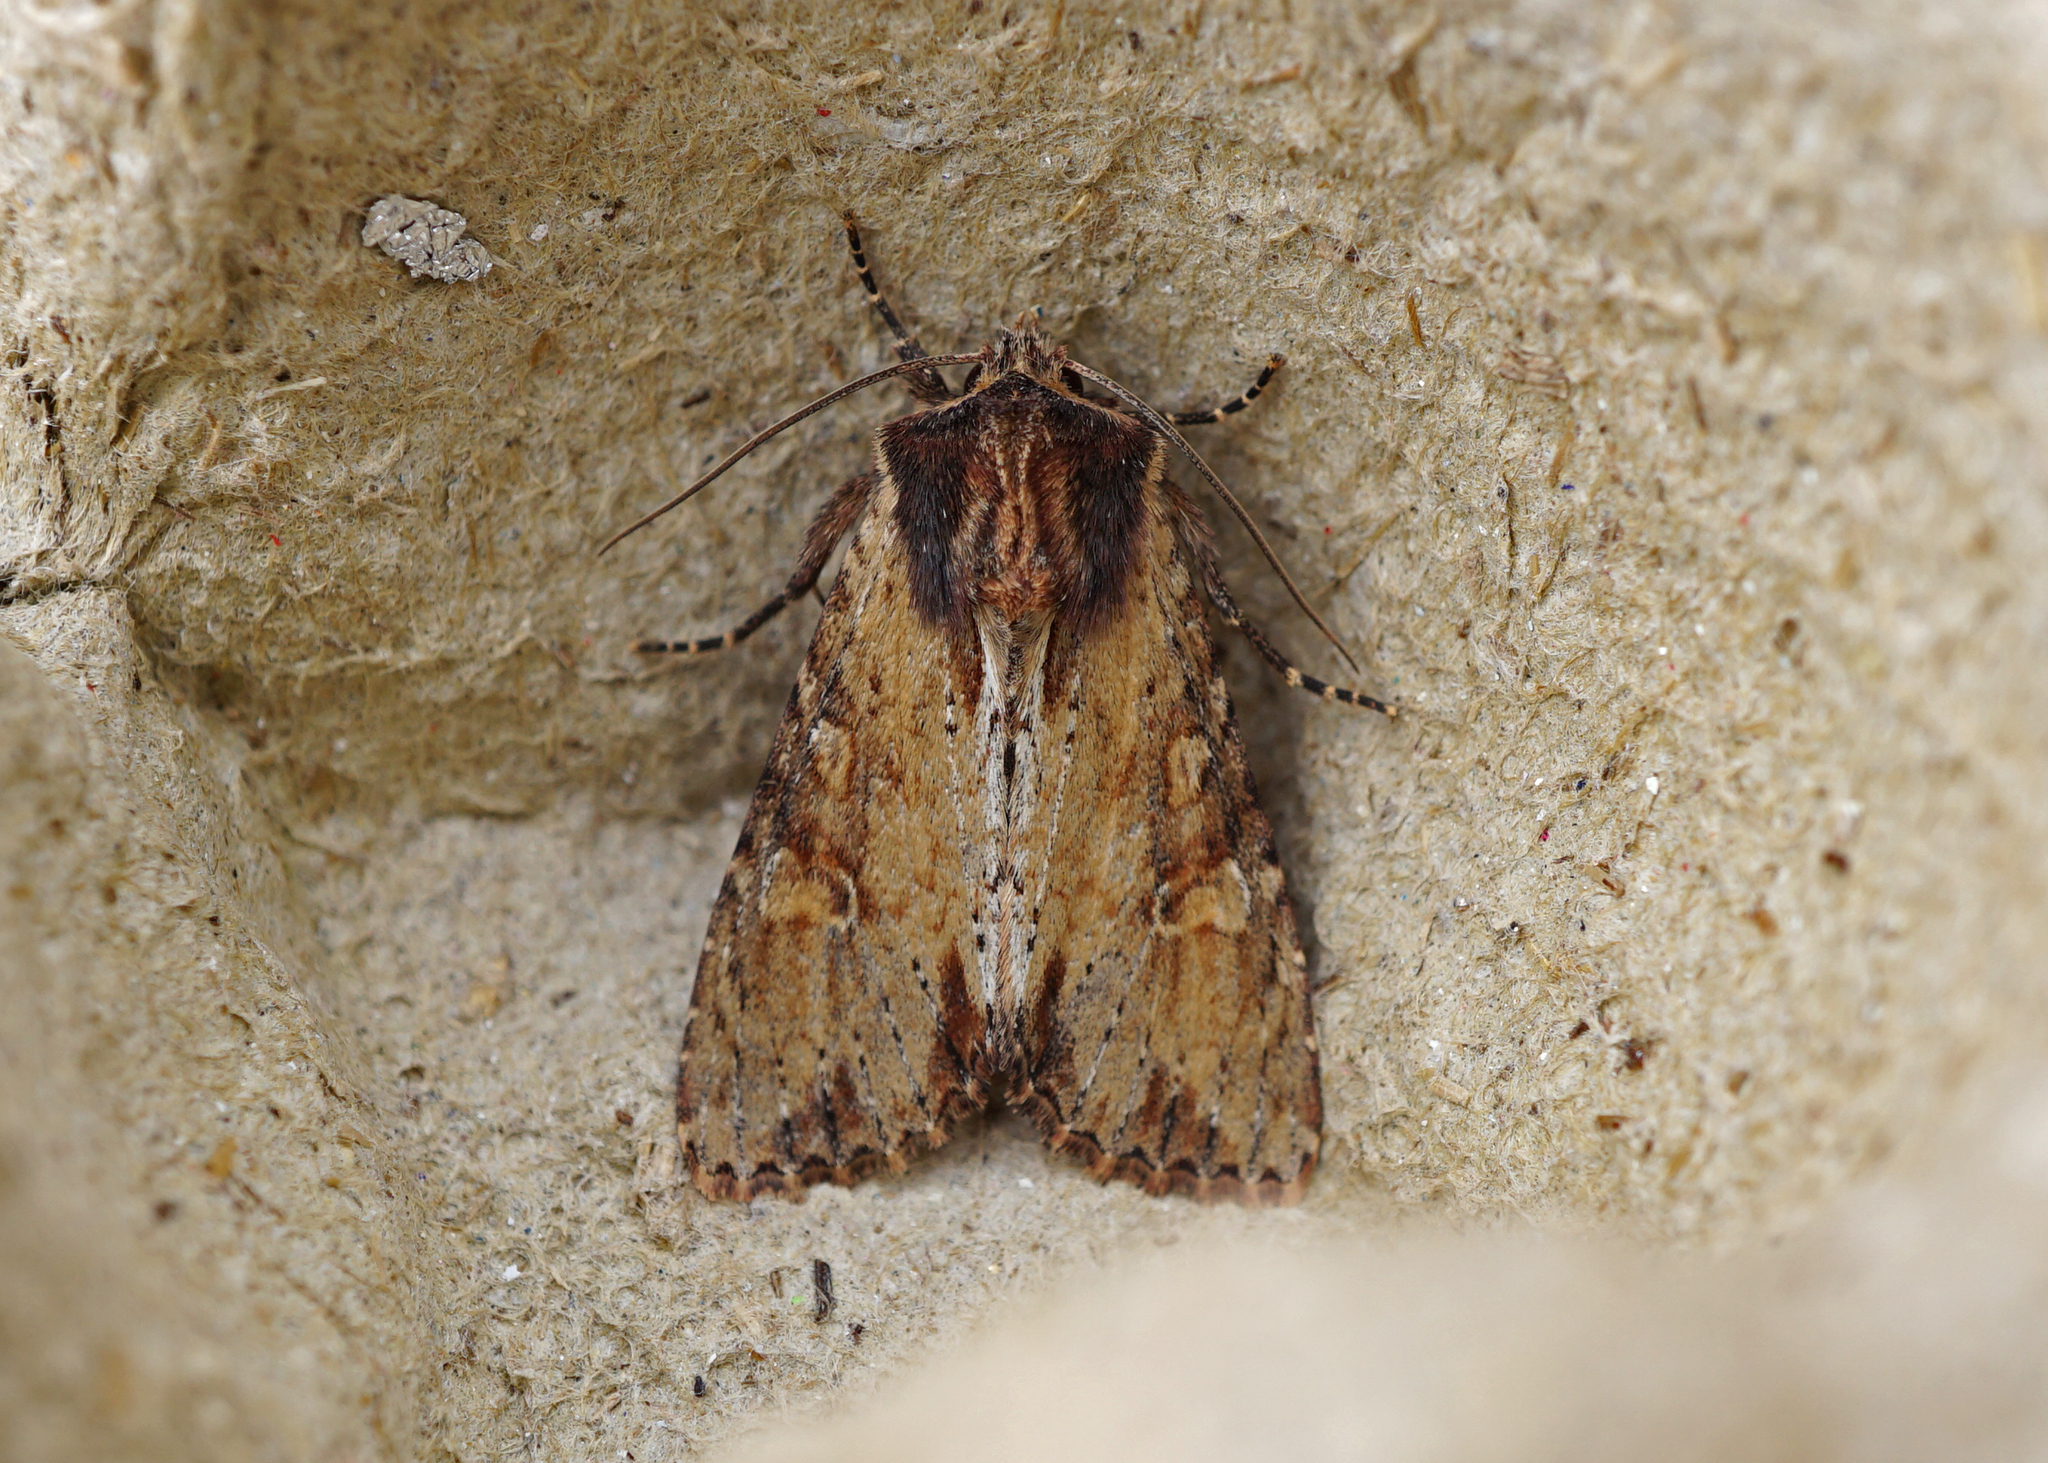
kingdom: Animalia
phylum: Arthropoda
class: Insecta
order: Lepidoptera
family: Noctuidae
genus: Apamea
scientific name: Apamea crenata
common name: Clouded-bordered brindle
